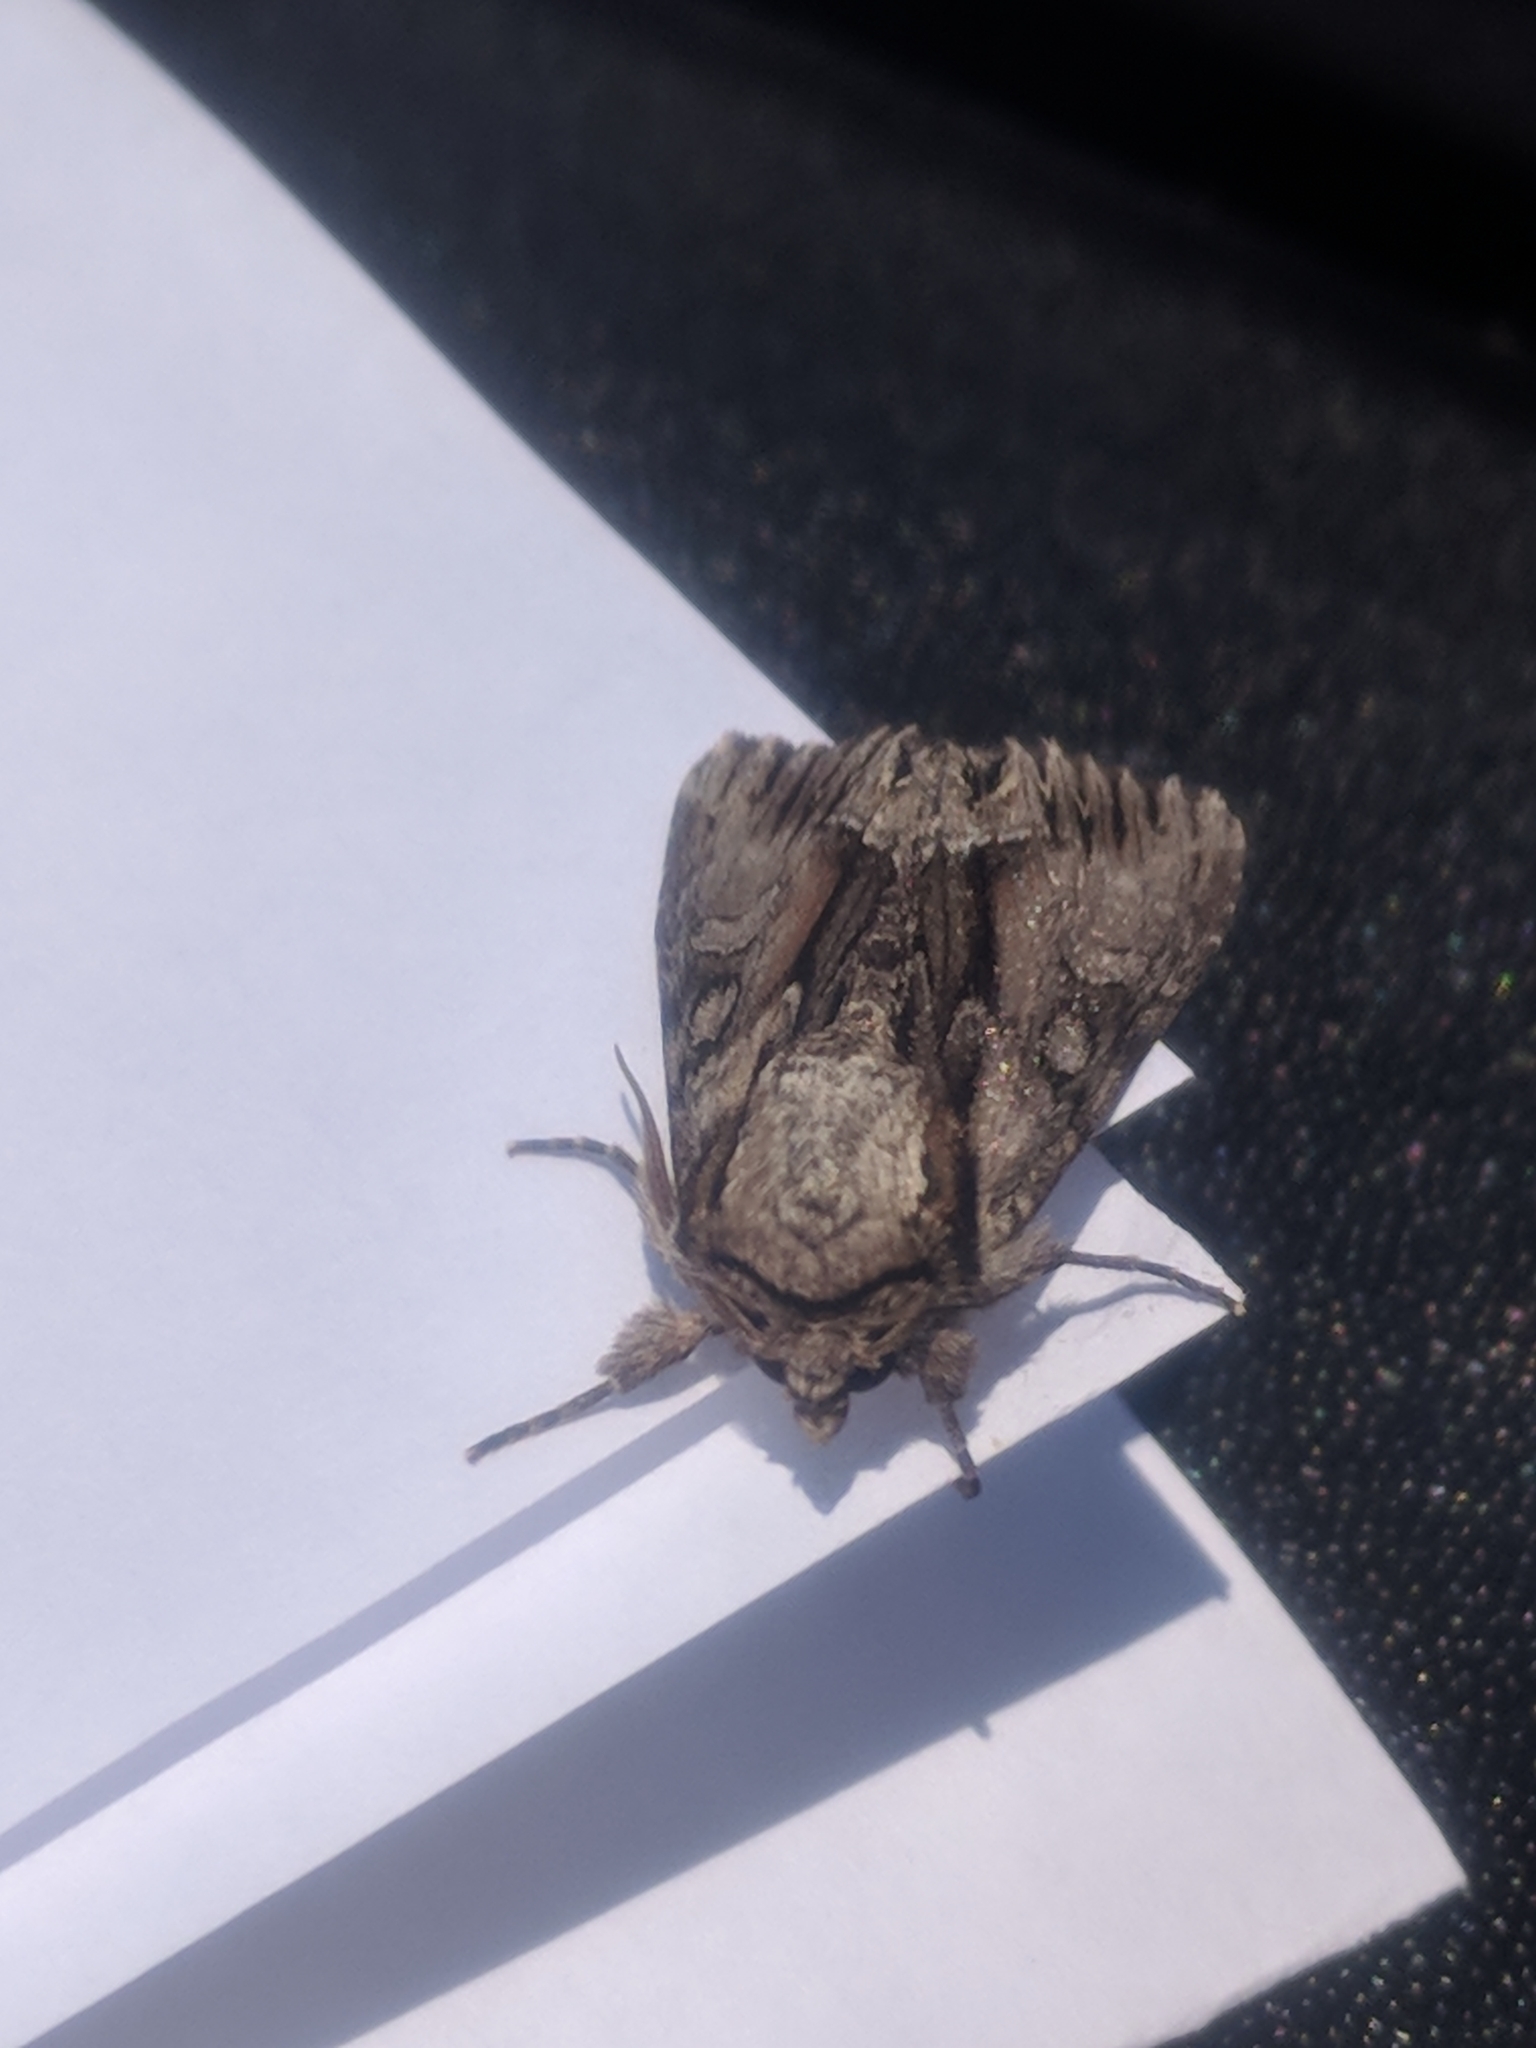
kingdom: Animalia
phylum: Arthropoda
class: Insecta
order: Lepidoptera
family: Noctuidae
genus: Hyppa
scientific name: Hyppa xylinoides
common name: Common hyppa moth
